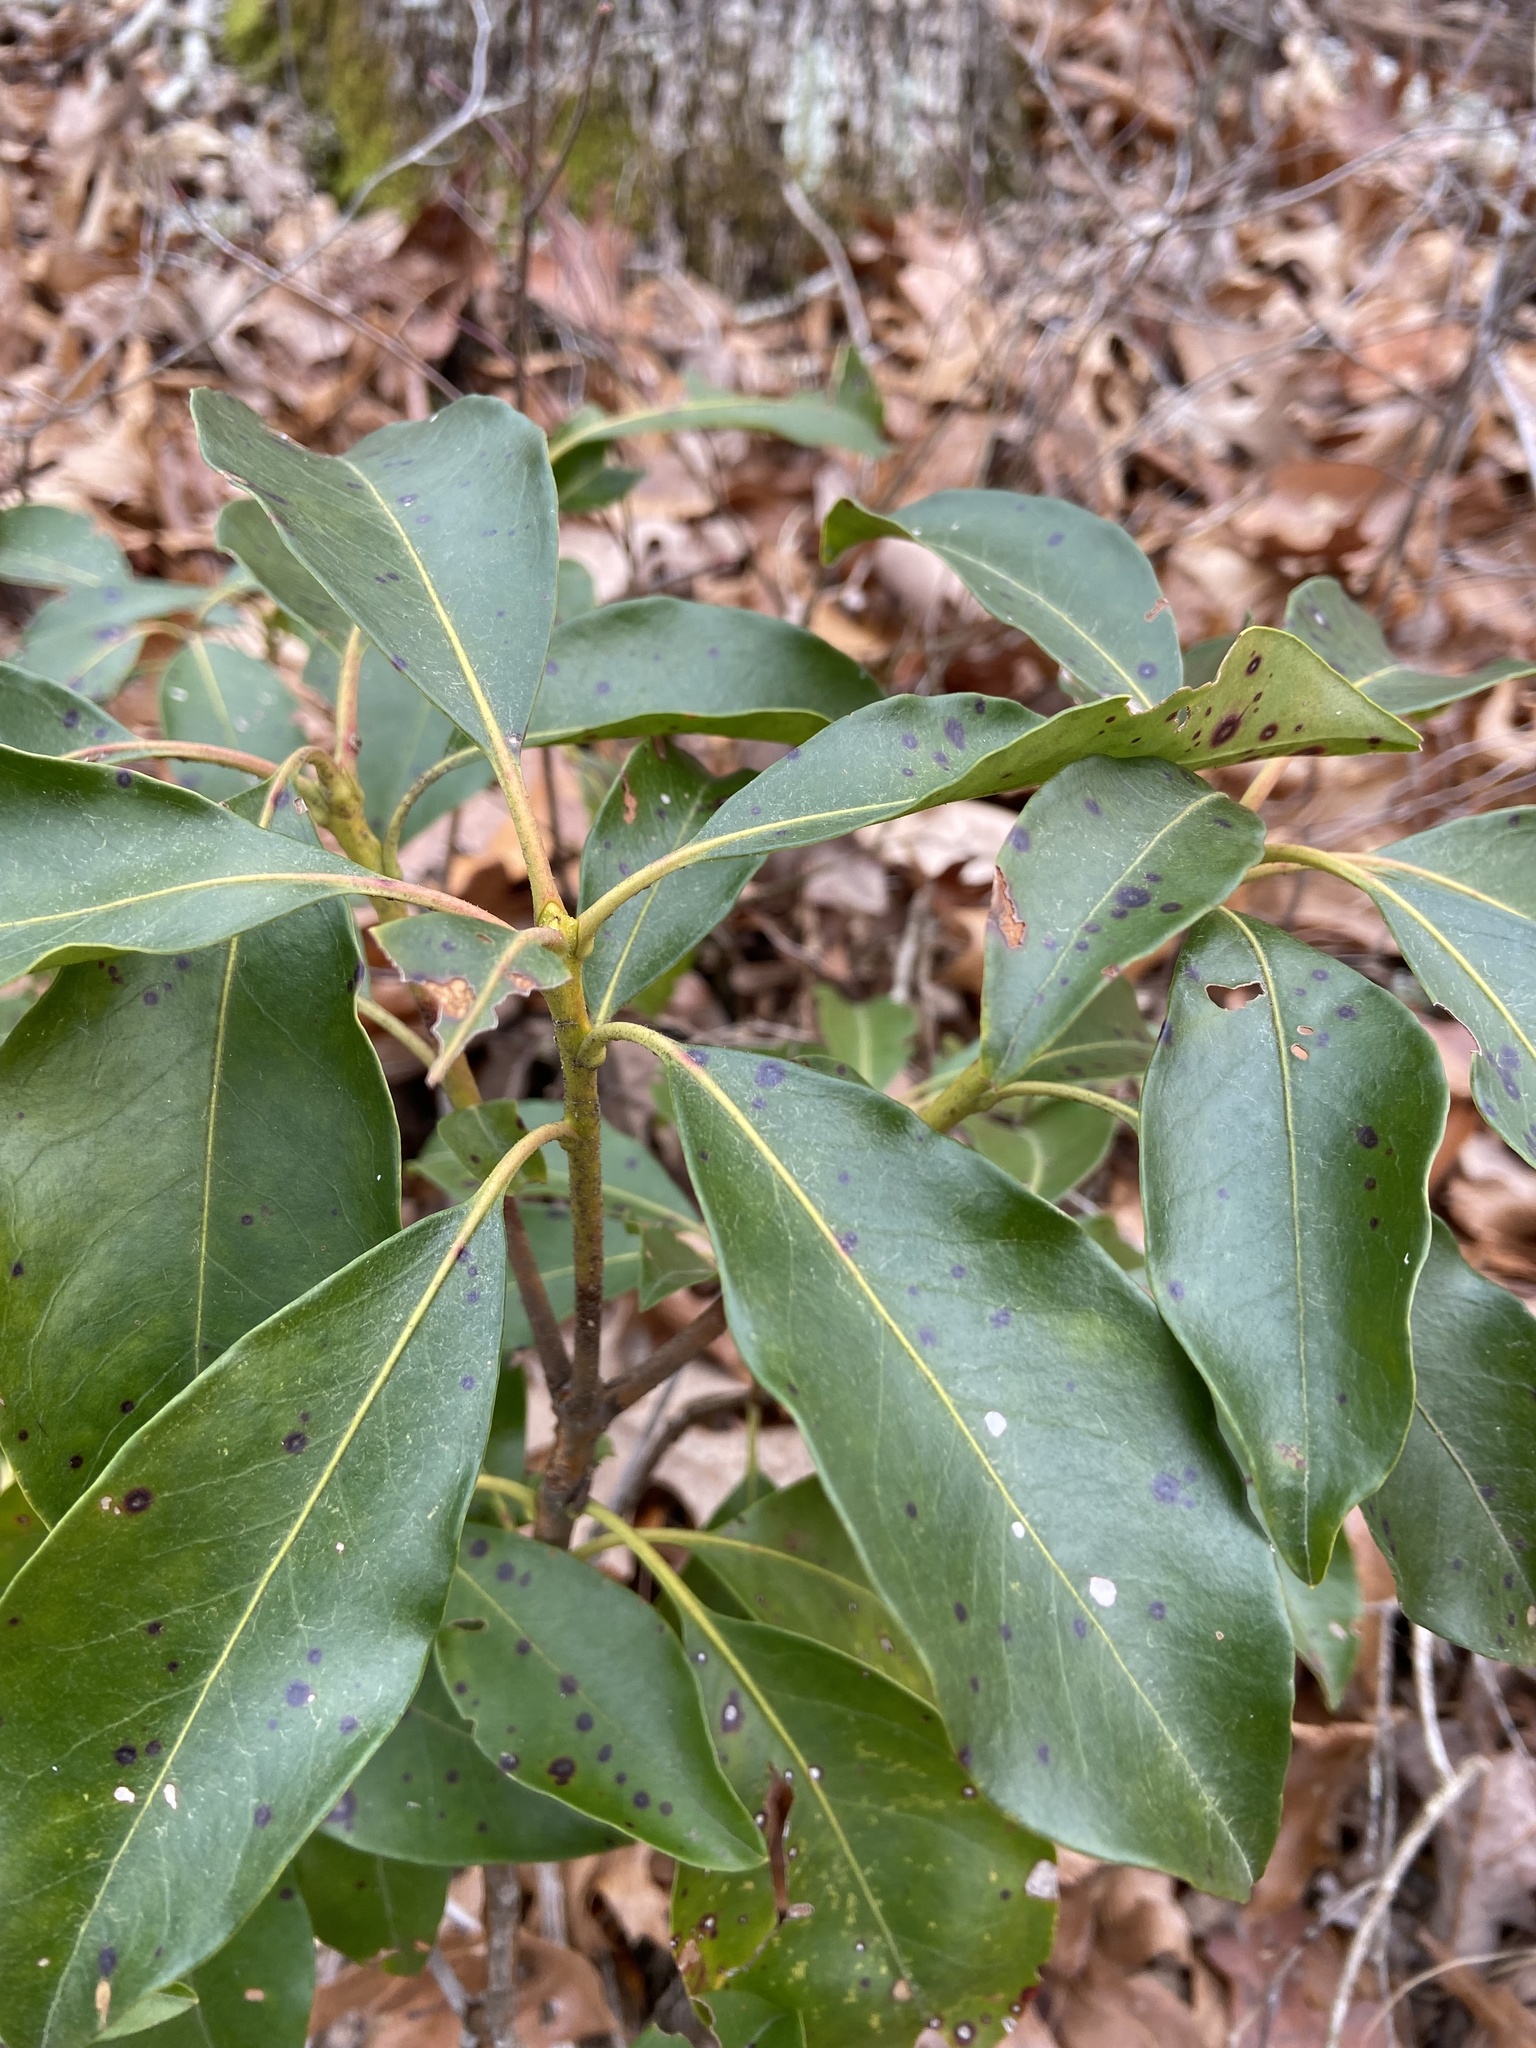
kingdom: Plantae
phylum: Tracheophyta
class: Magnoliopsida
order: Ericales
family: Ericaceae
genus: Kalmia
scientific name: Kalmia latifolia
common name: Mountain-laurel
